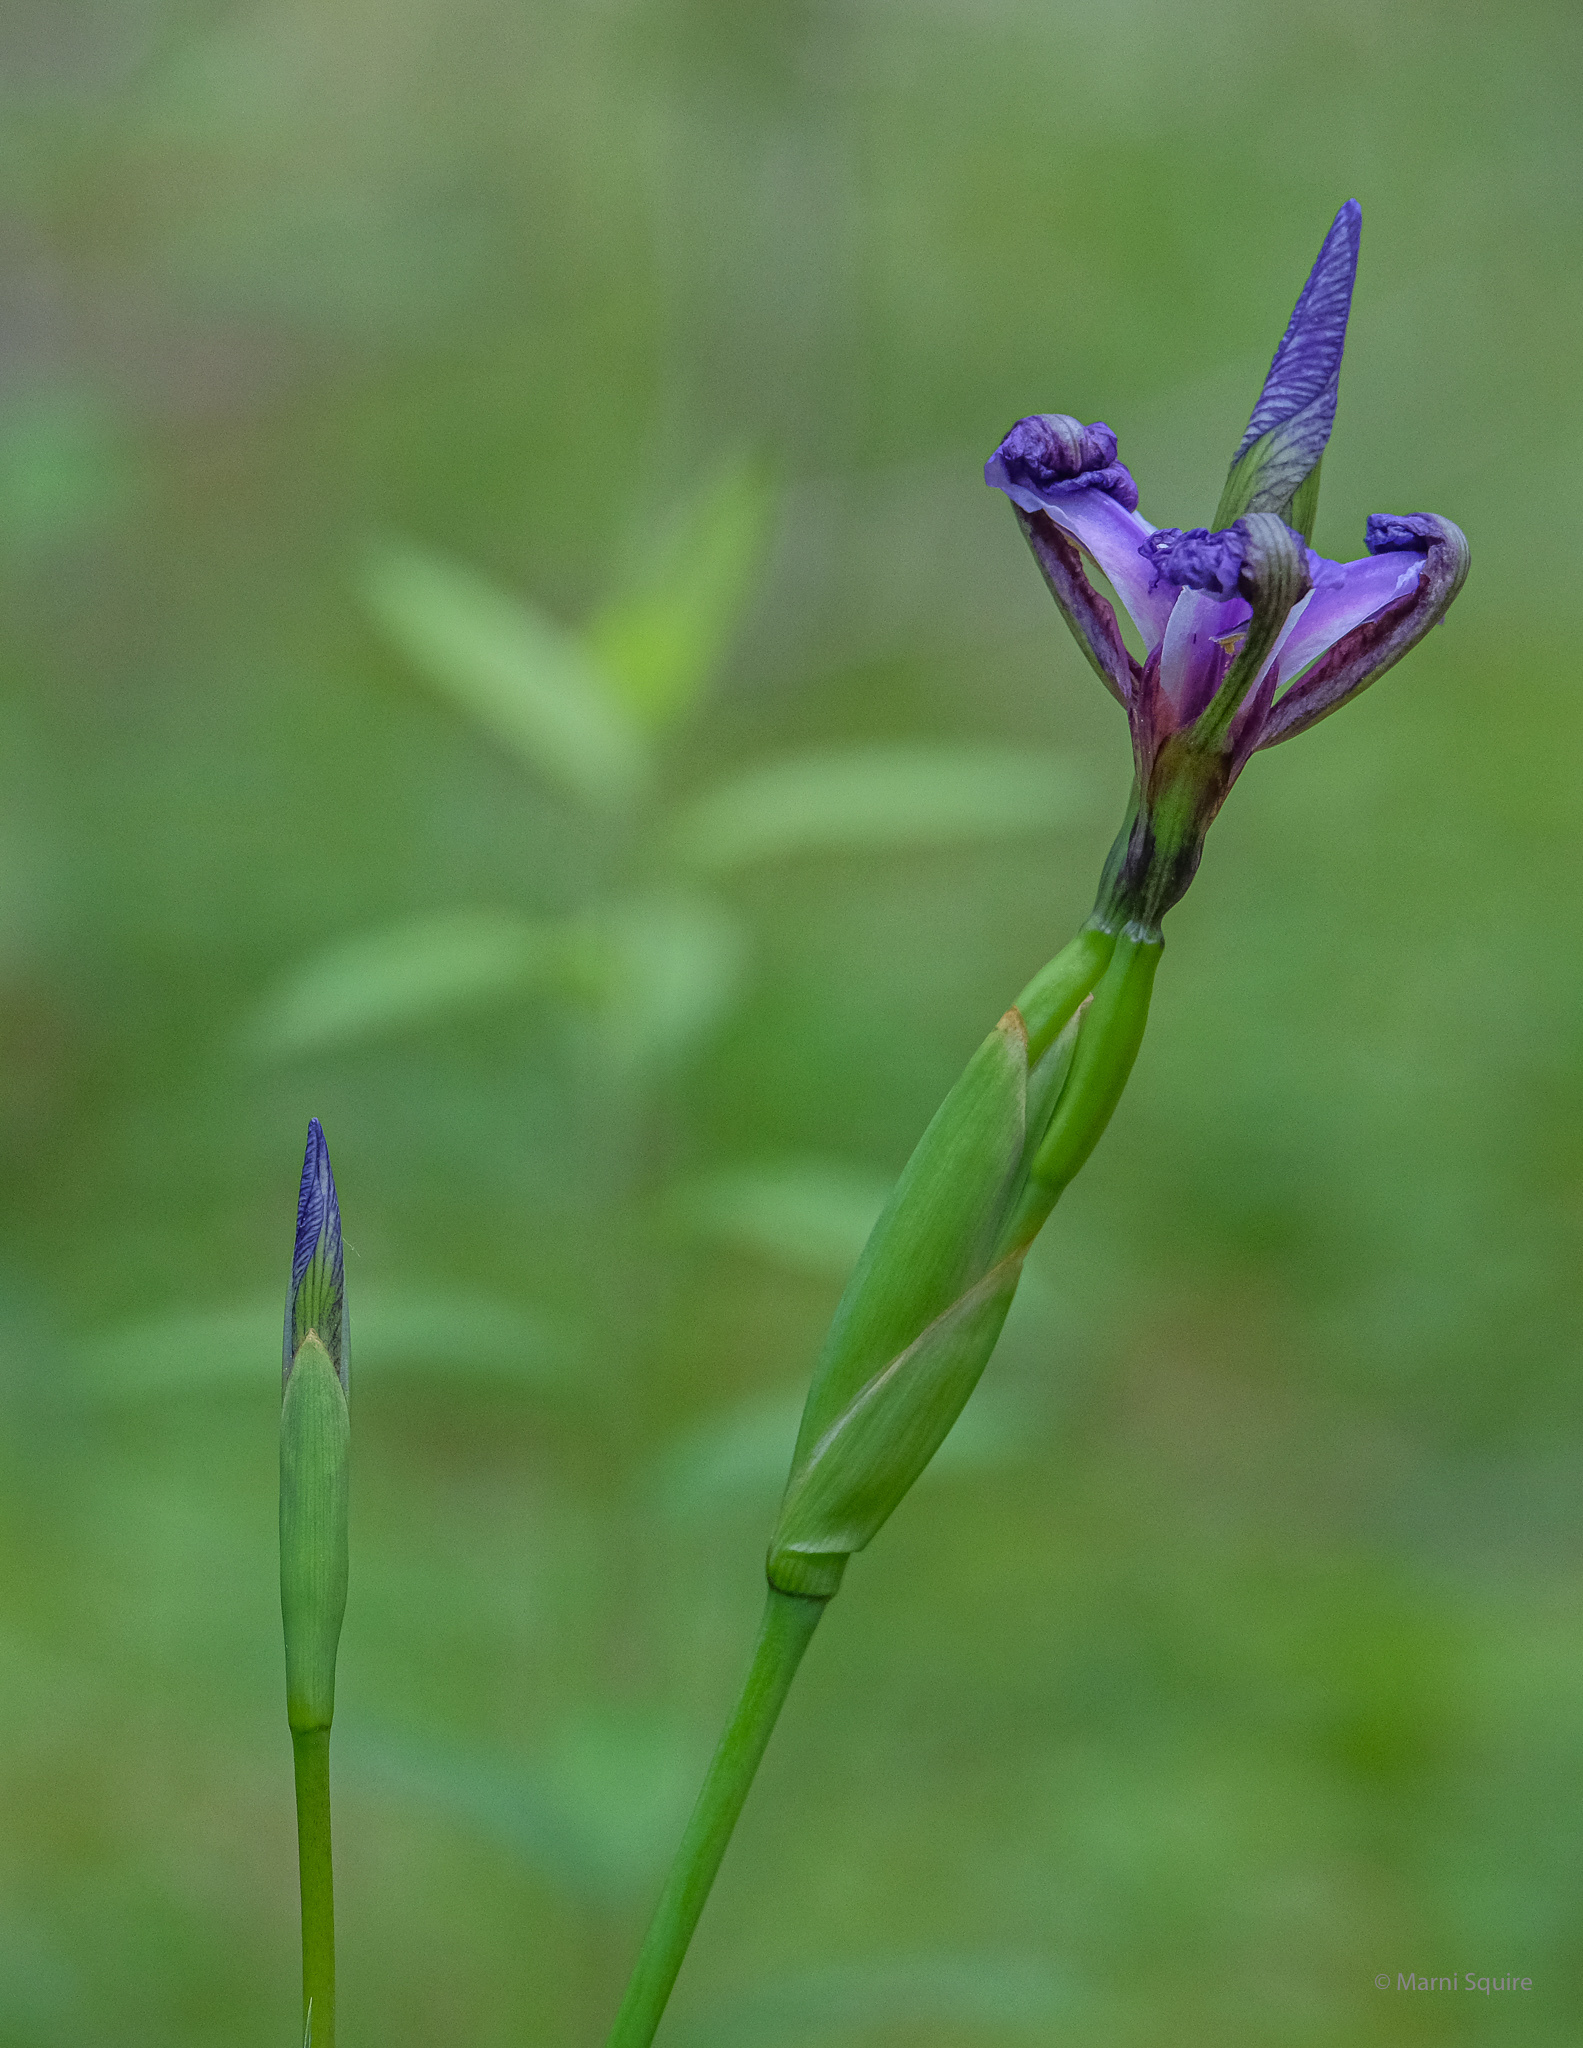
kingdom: Plantae
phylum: Tracheophyta
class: Liliopsida
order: Asparagales
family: Iridaceae
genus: Iris
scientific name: Iris versicolor
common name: Purple iris
